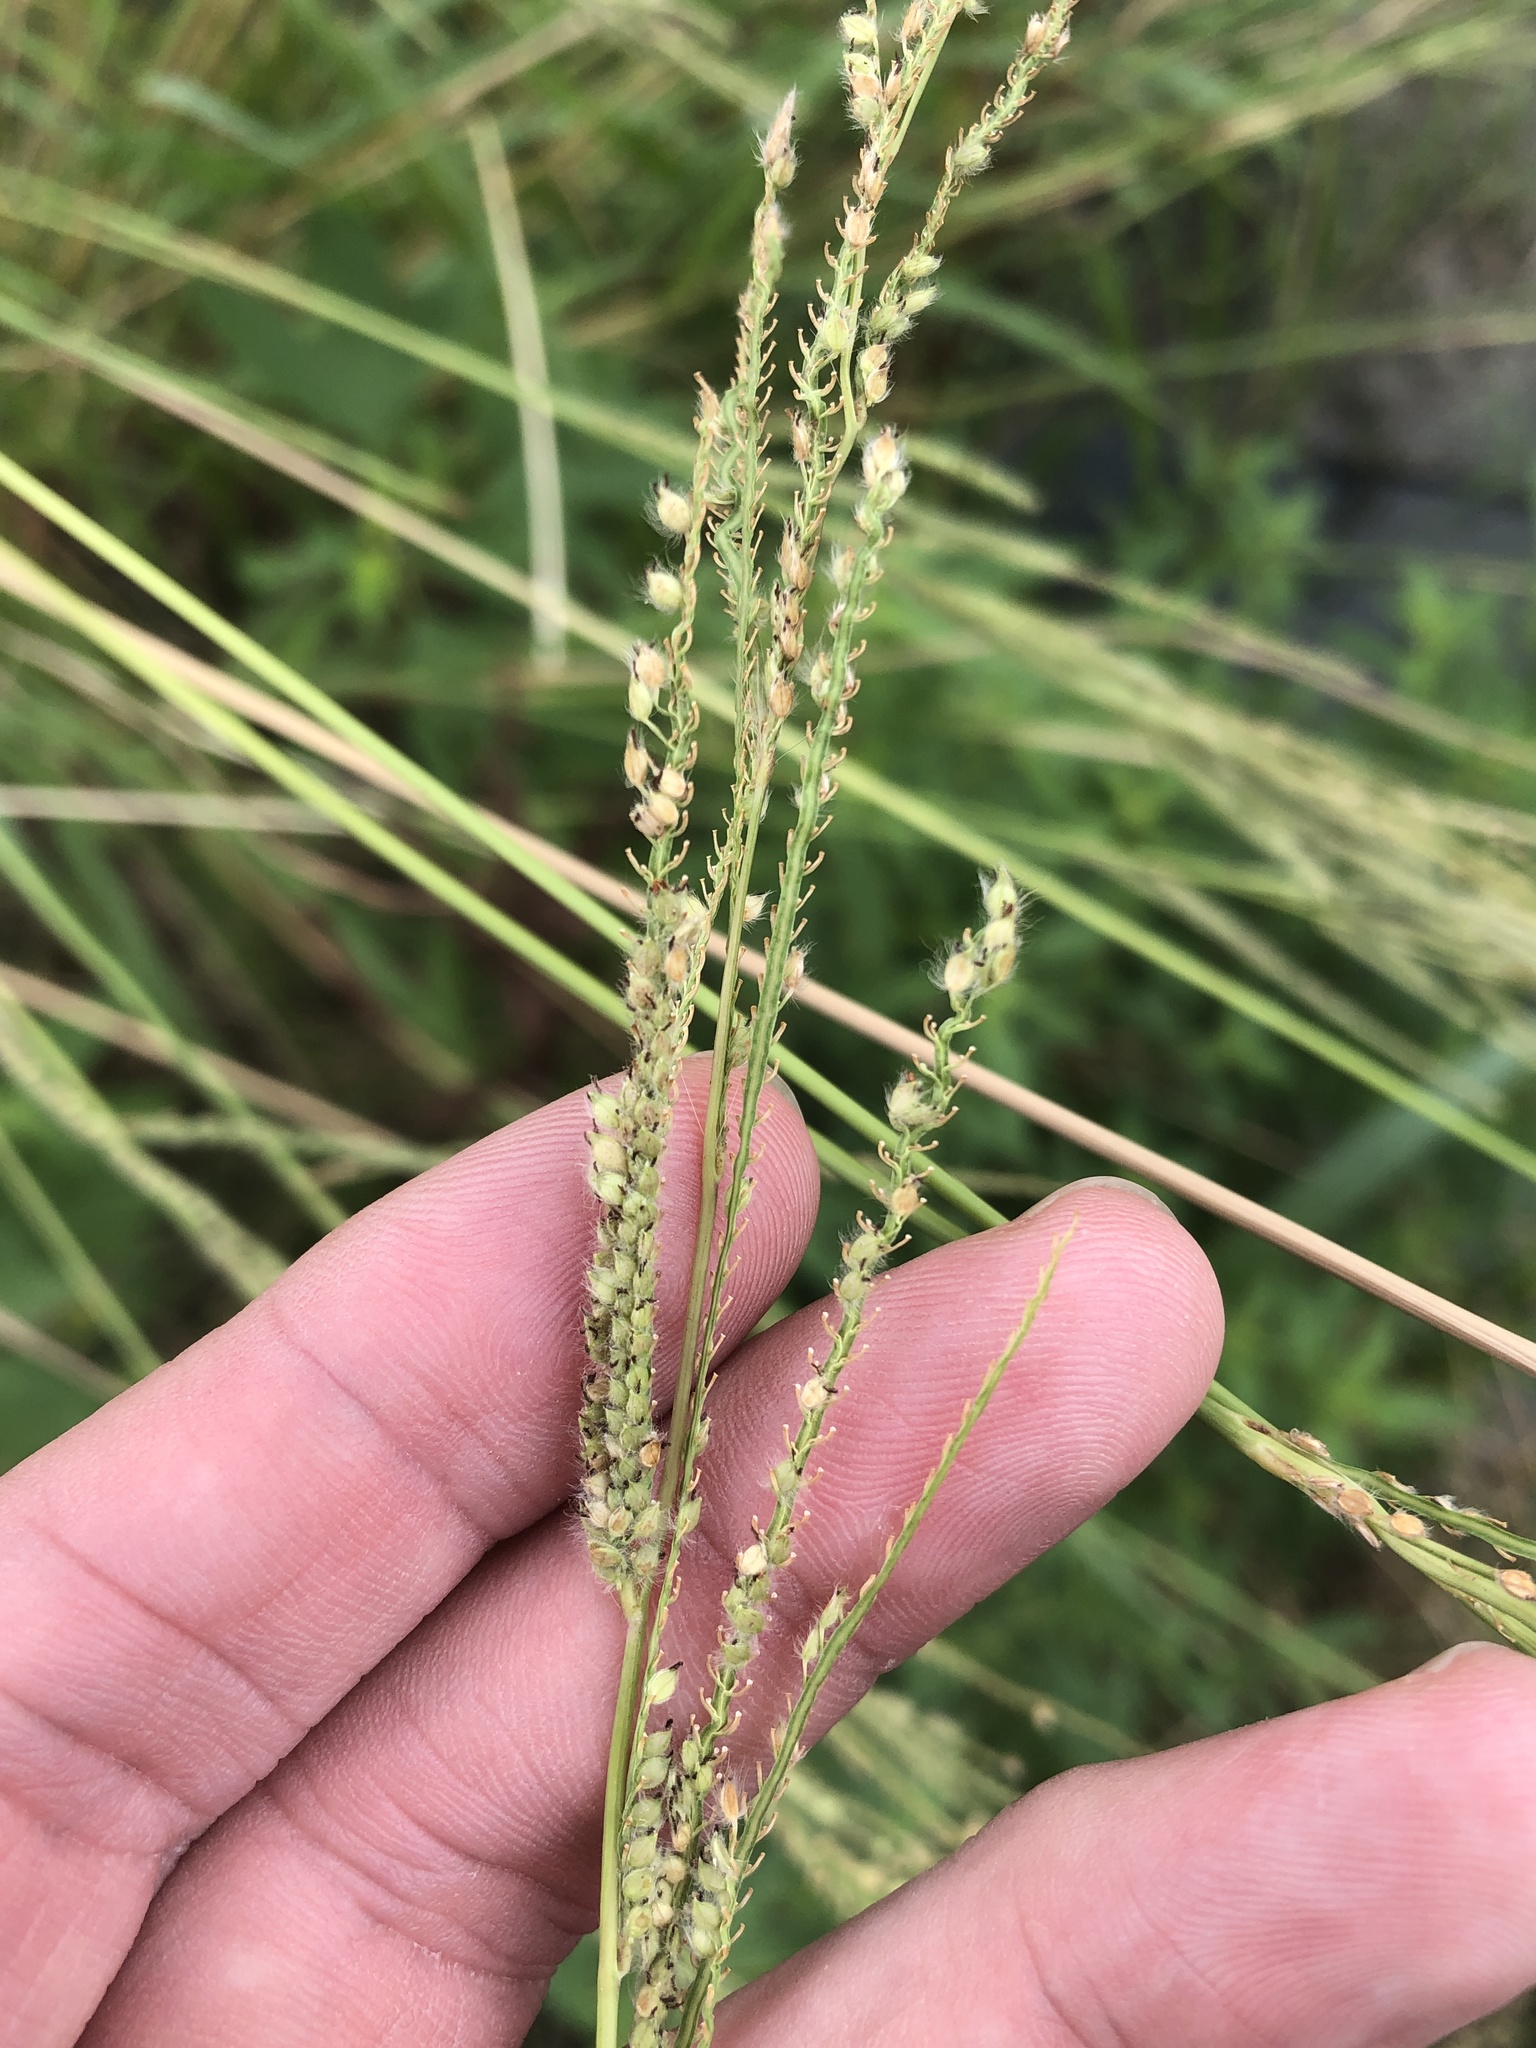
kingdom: Plantae
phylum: Tracheophyta
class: Liliopsida
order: Poales
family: Poaceae
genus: Paspalum
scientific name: Paspalum urvillei
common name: Vasey's grass
